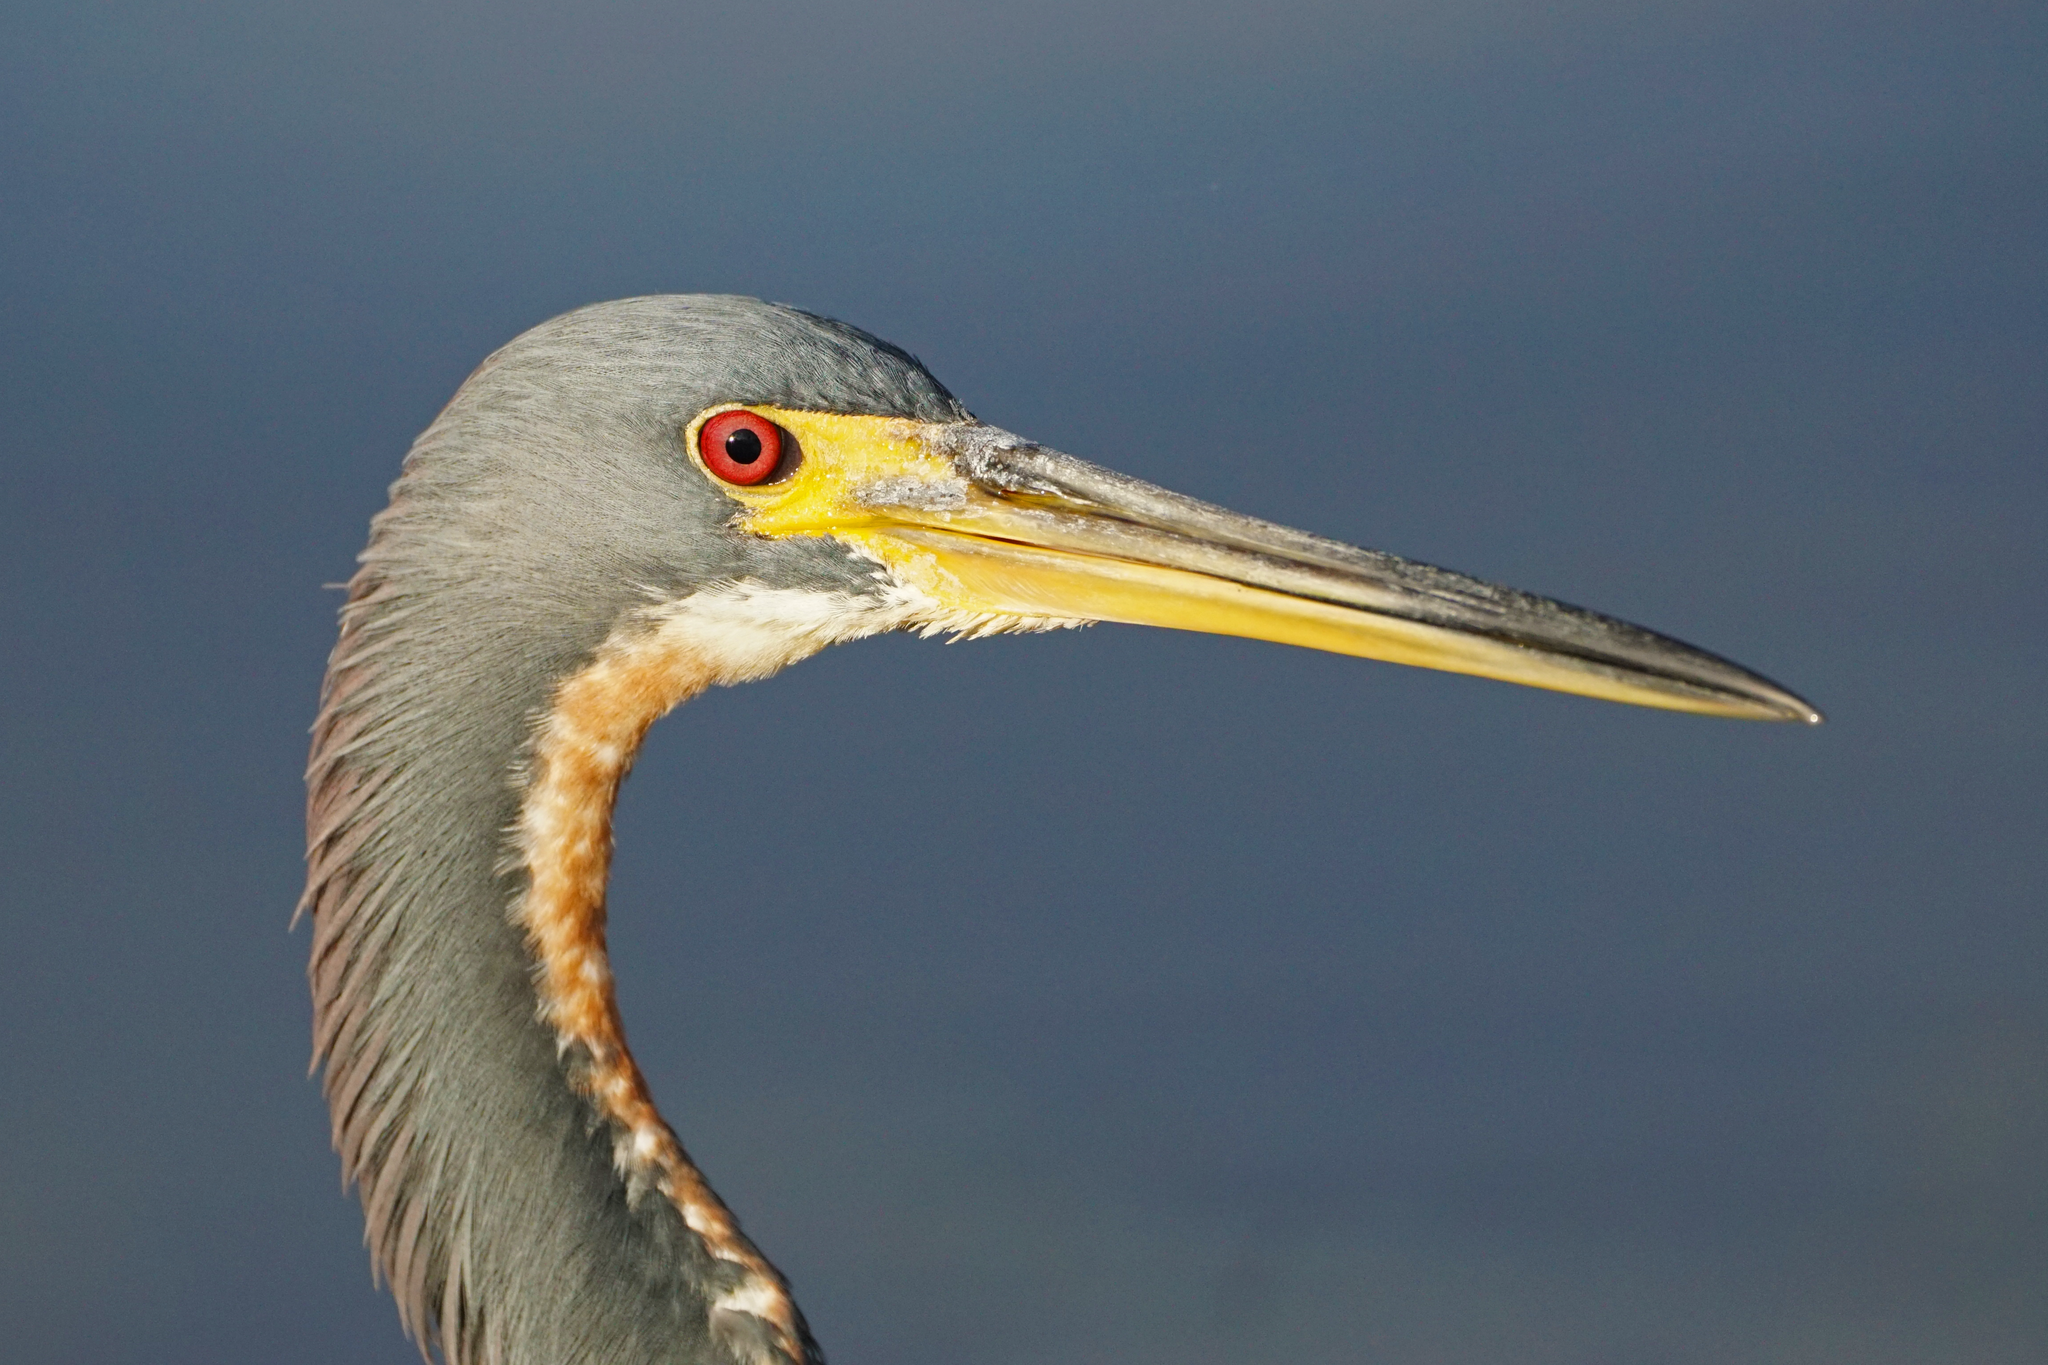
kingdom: Animalia
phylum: Chordata
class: Aves
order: Pelecaniformes
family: Ardeidae
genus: Egretta
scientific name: Egretta tricolor
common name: Tricolored heron
